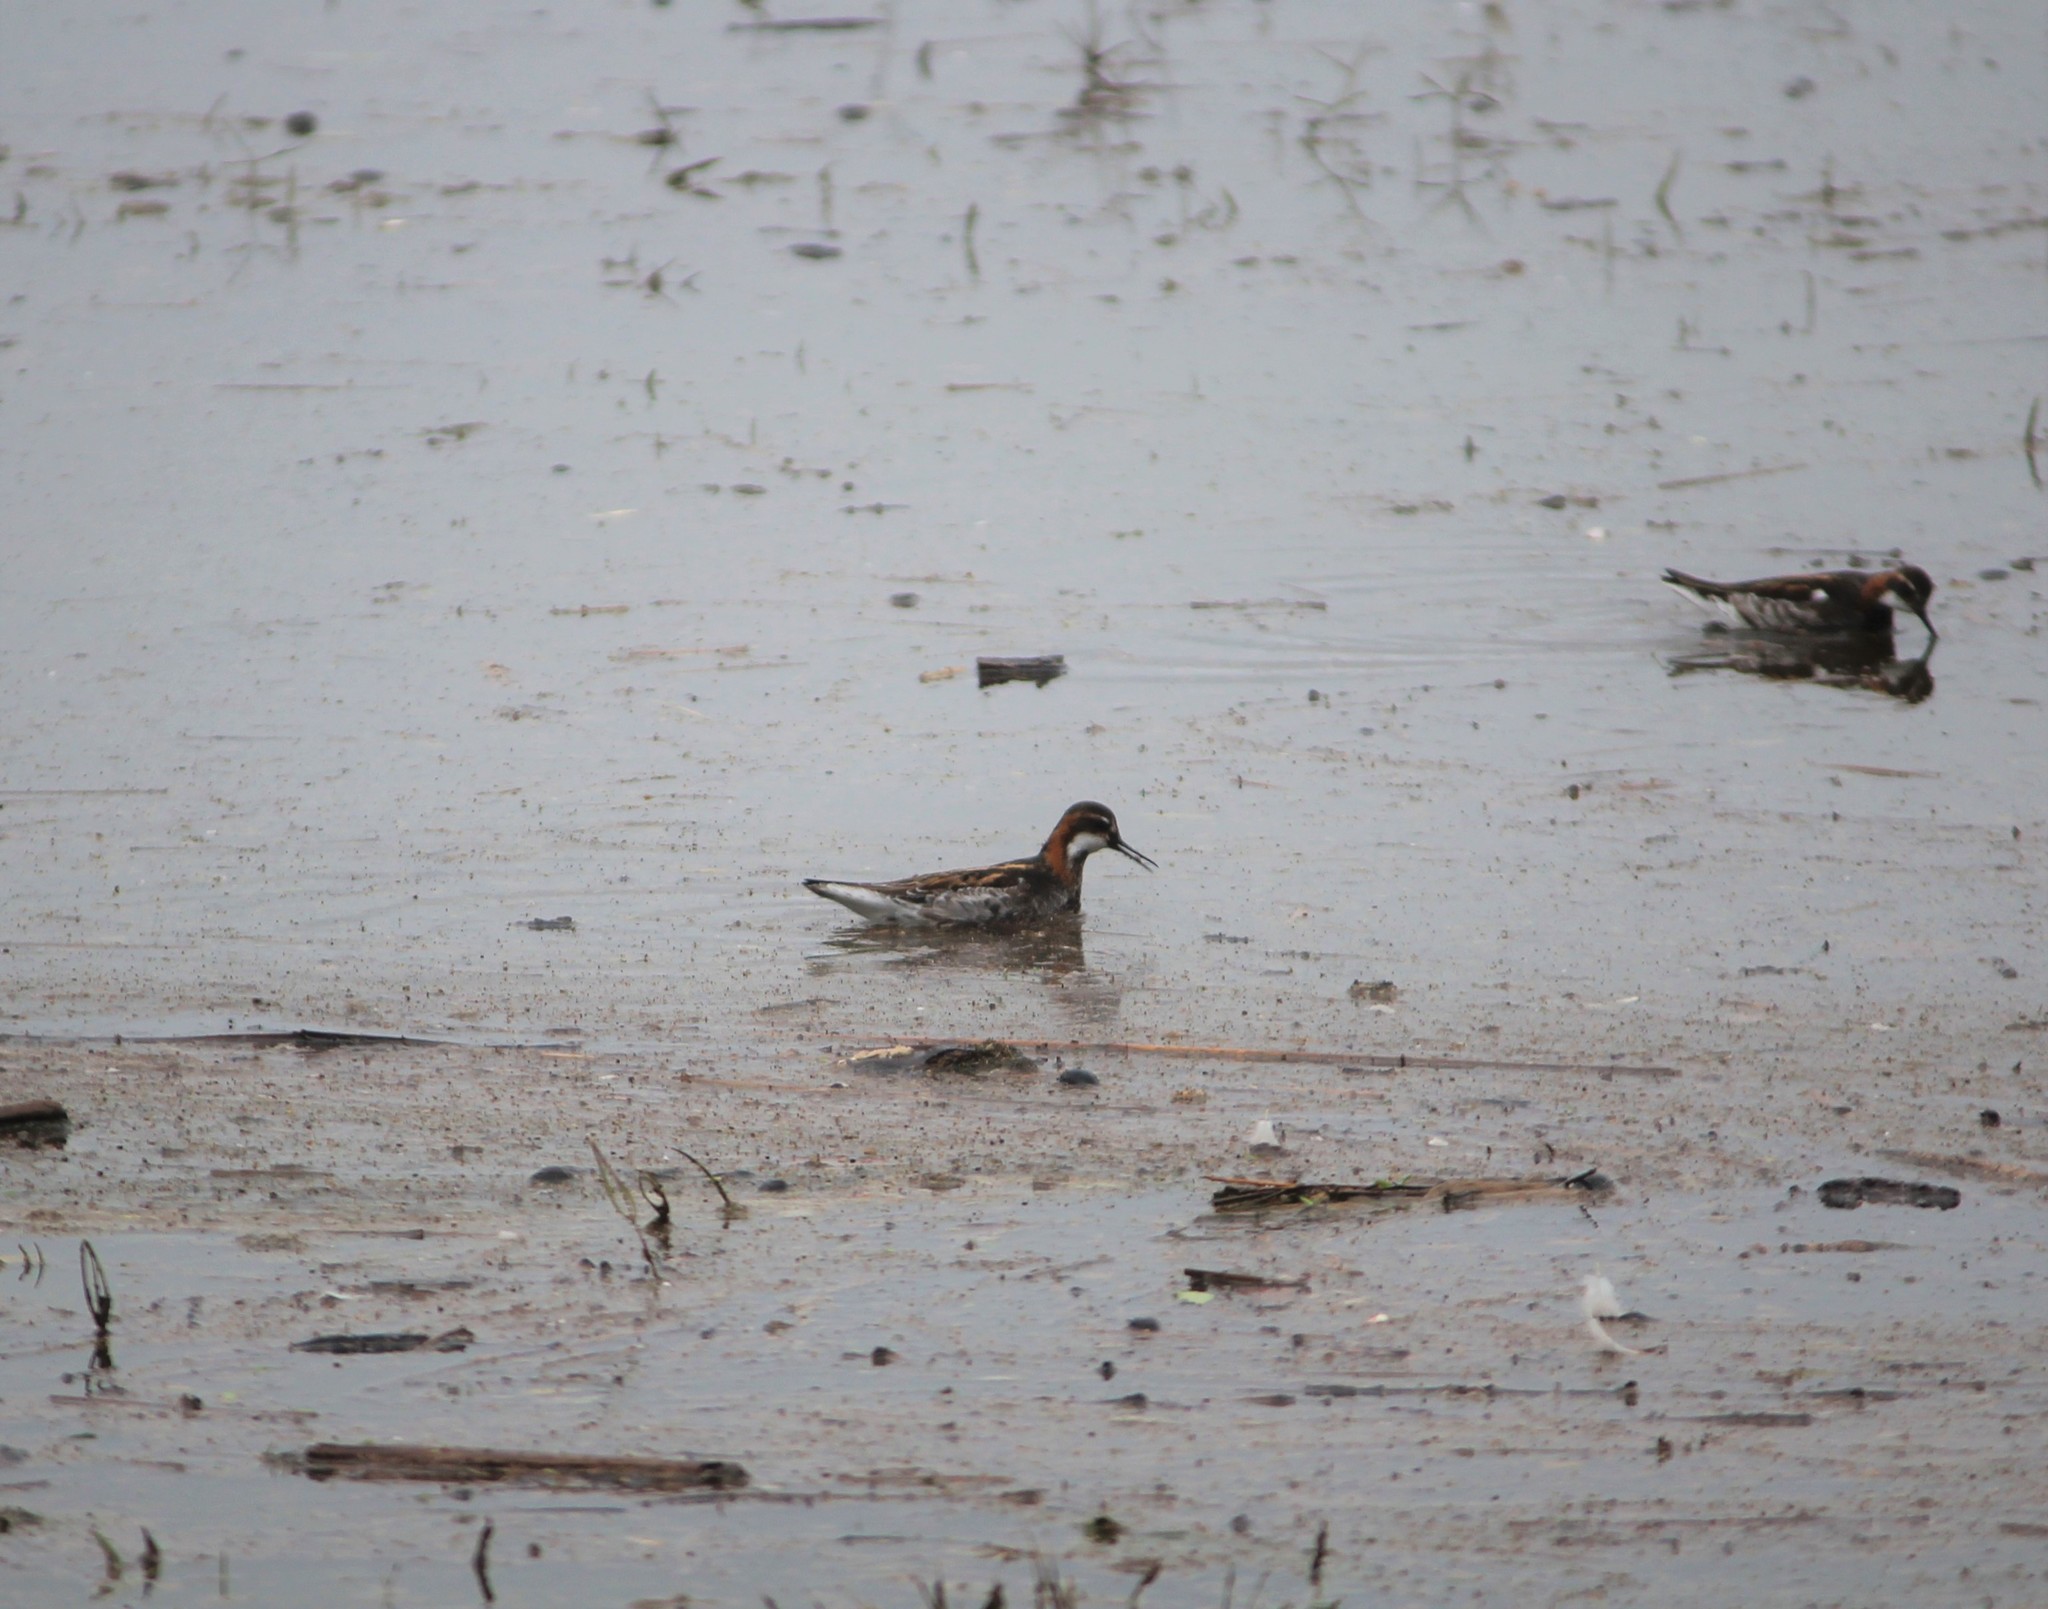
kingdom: Animalia
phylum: Chordata
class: Aves
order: Charadriiformes
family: Scolopacidae
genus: Phalaropus
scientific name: Phalaropus lobatus
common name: Red-necked phalarope
